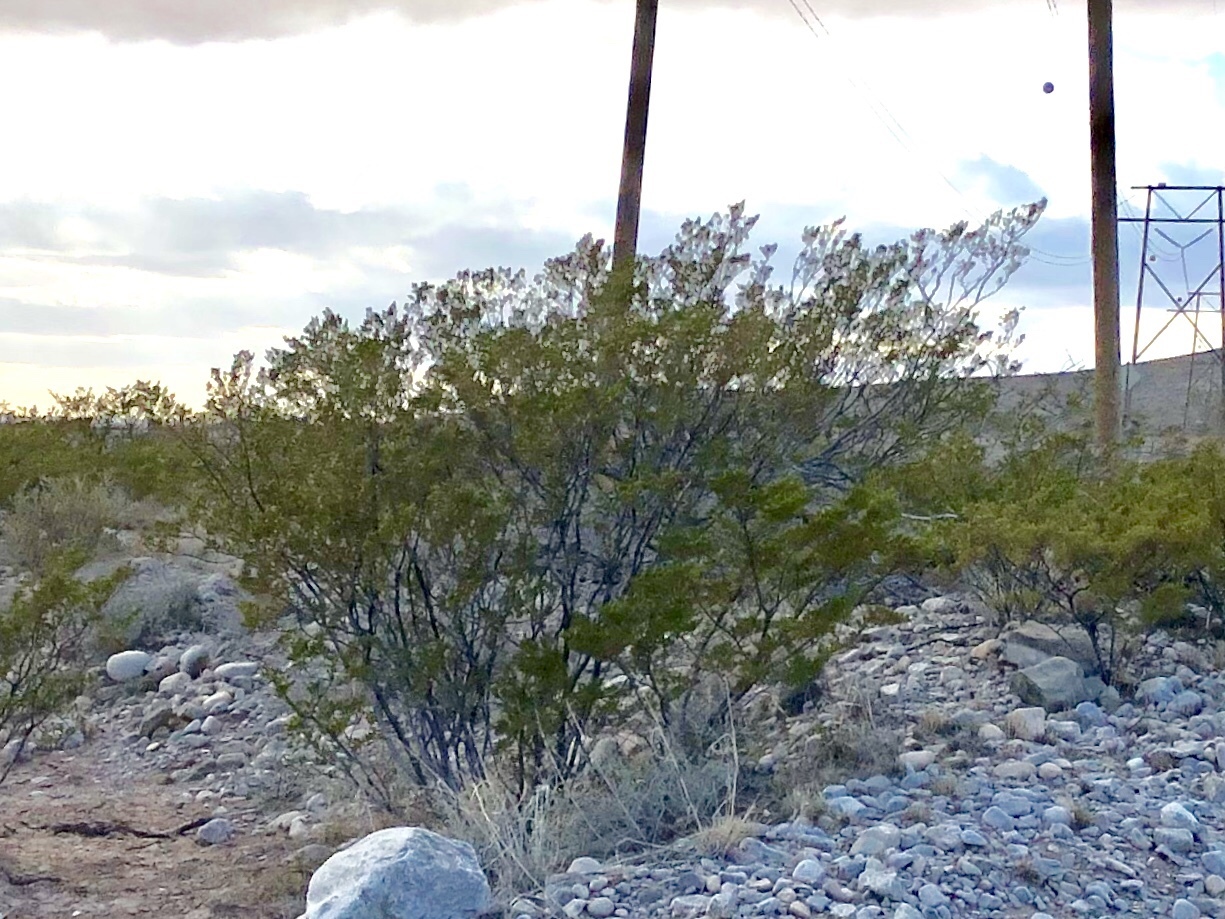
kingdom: Plantae
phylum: Tracheophyta
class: Magnoliopsida
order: Zygophyllales
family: Zygophyllaceae
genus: Larrea
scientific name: Larrea tridentata
